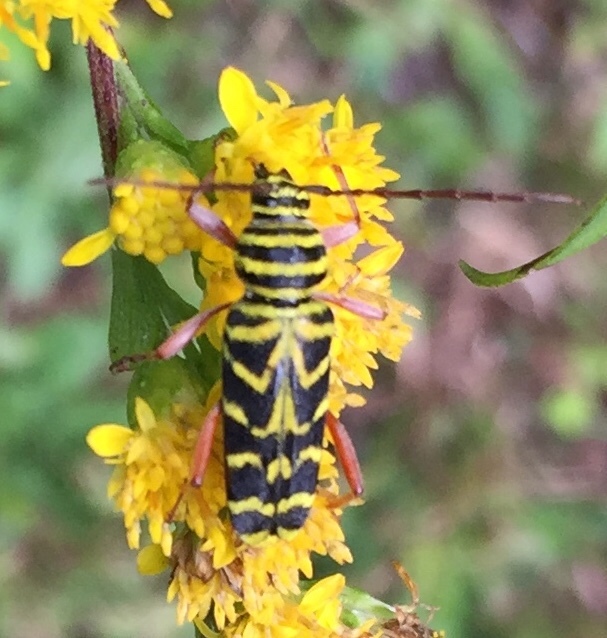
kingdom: Animalia
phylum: Arthropoda
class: Insecta
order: Coleoptera
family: Cerambycidae
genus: Megacyllene
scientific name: Megacyllene robiniae
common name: Locust borer
